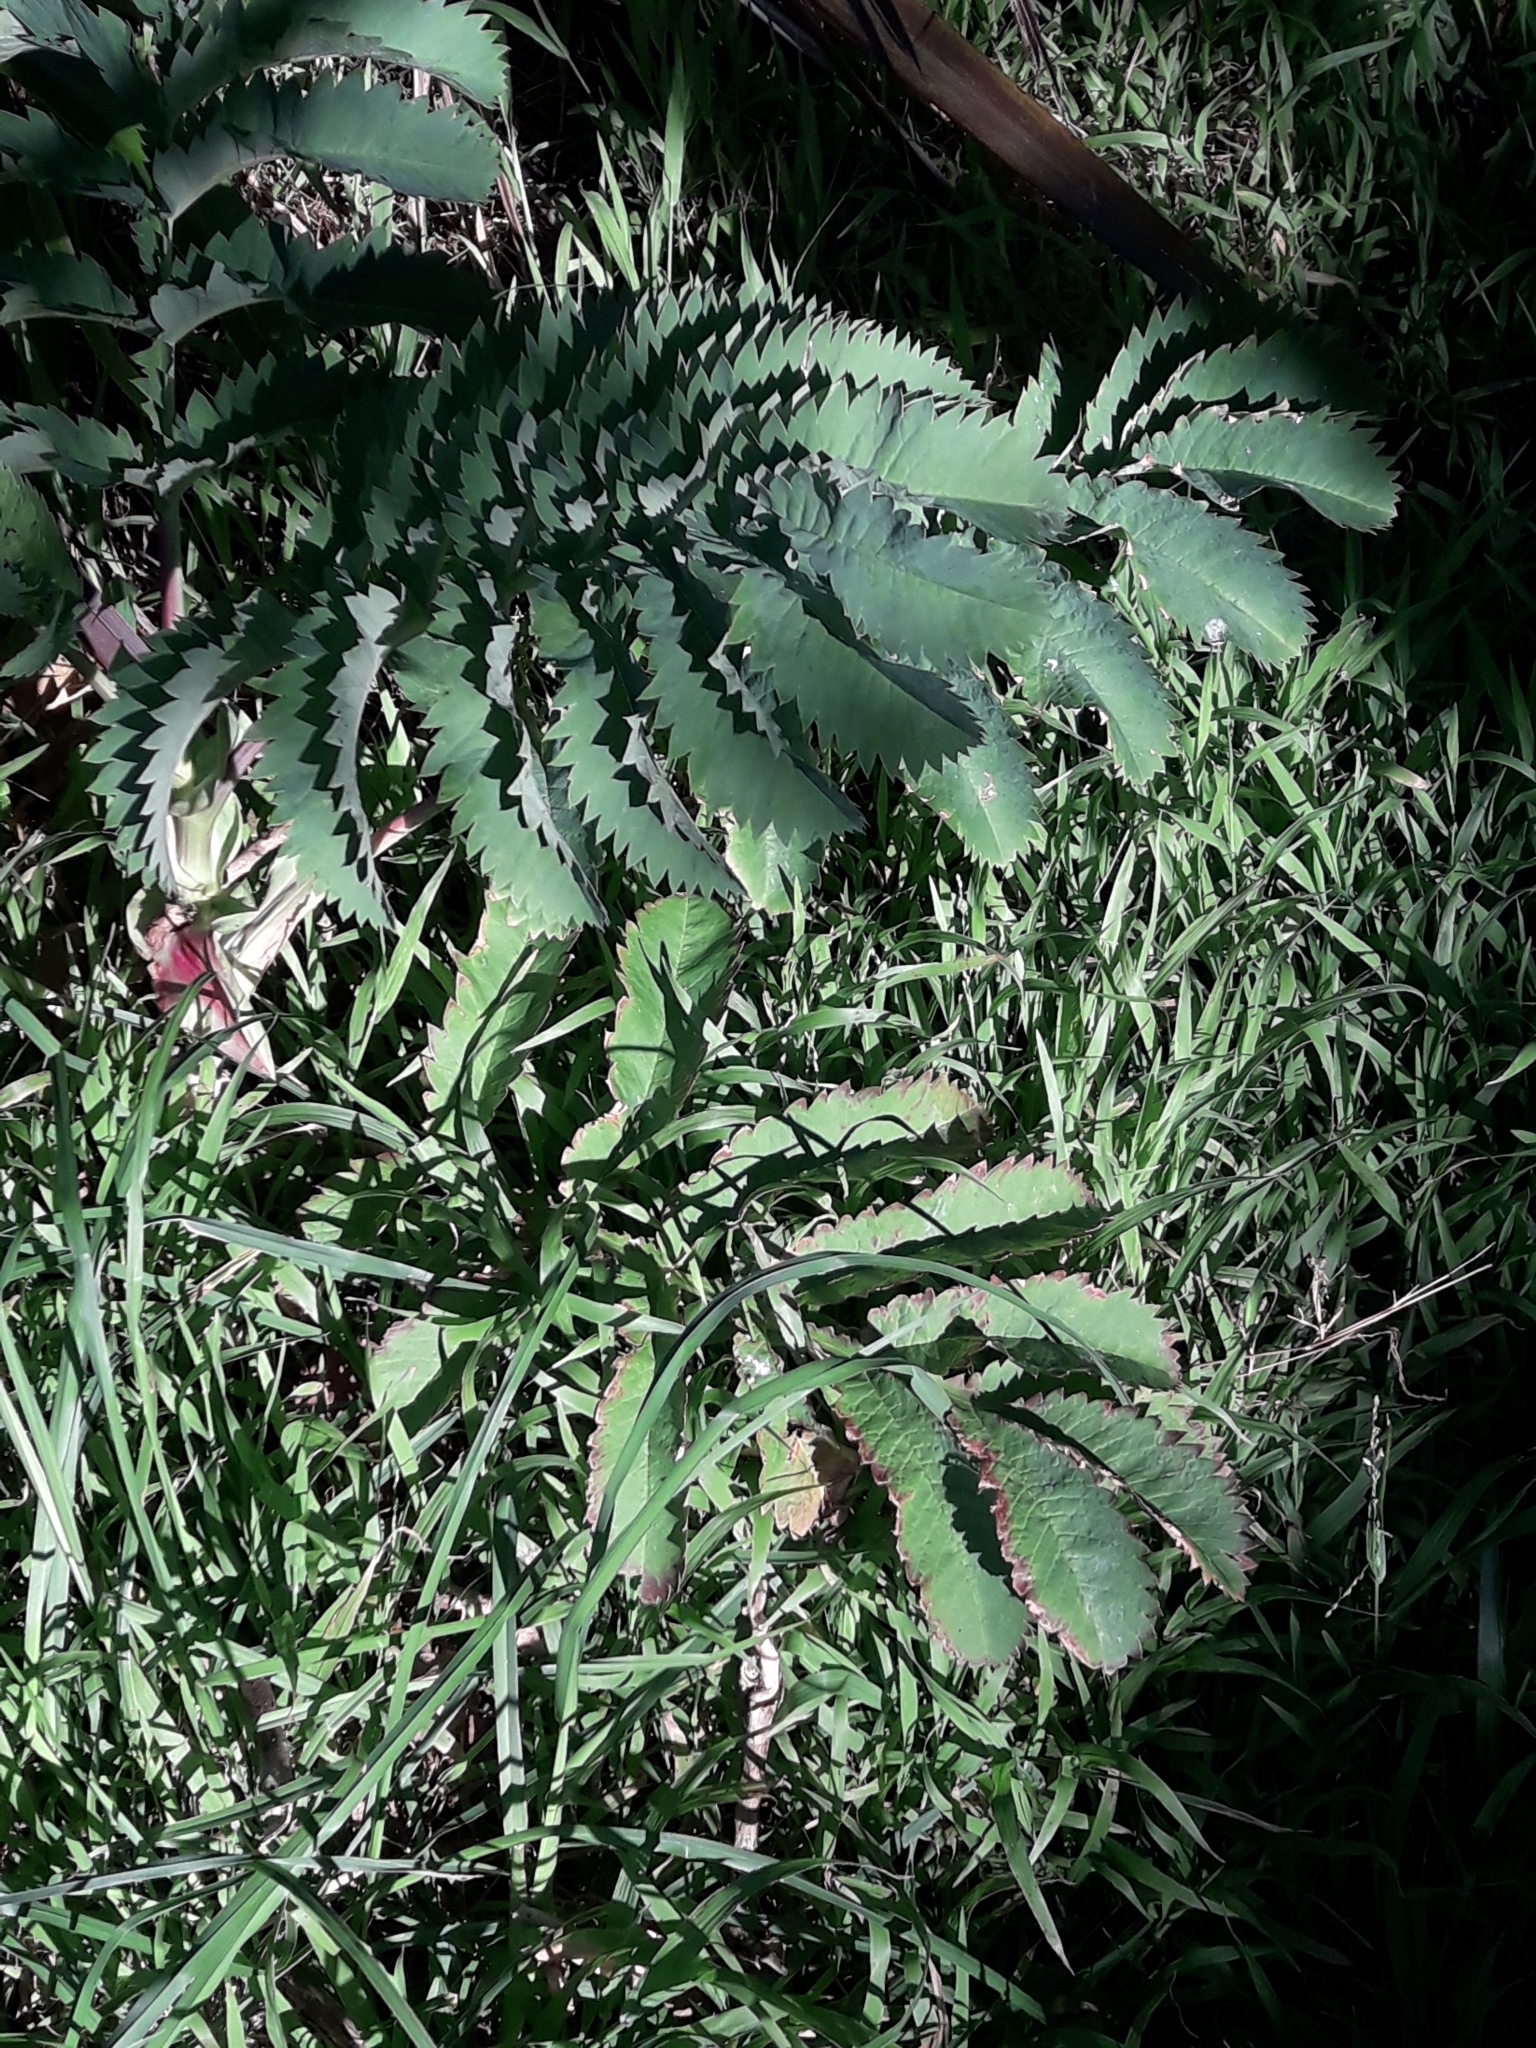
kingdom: Plantae
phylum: Tracheophyta
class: Magnoliopsida
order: Geraniales
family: Melianthaceae
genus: Melianthus
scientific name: Melianthus major
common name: Honey-flower
